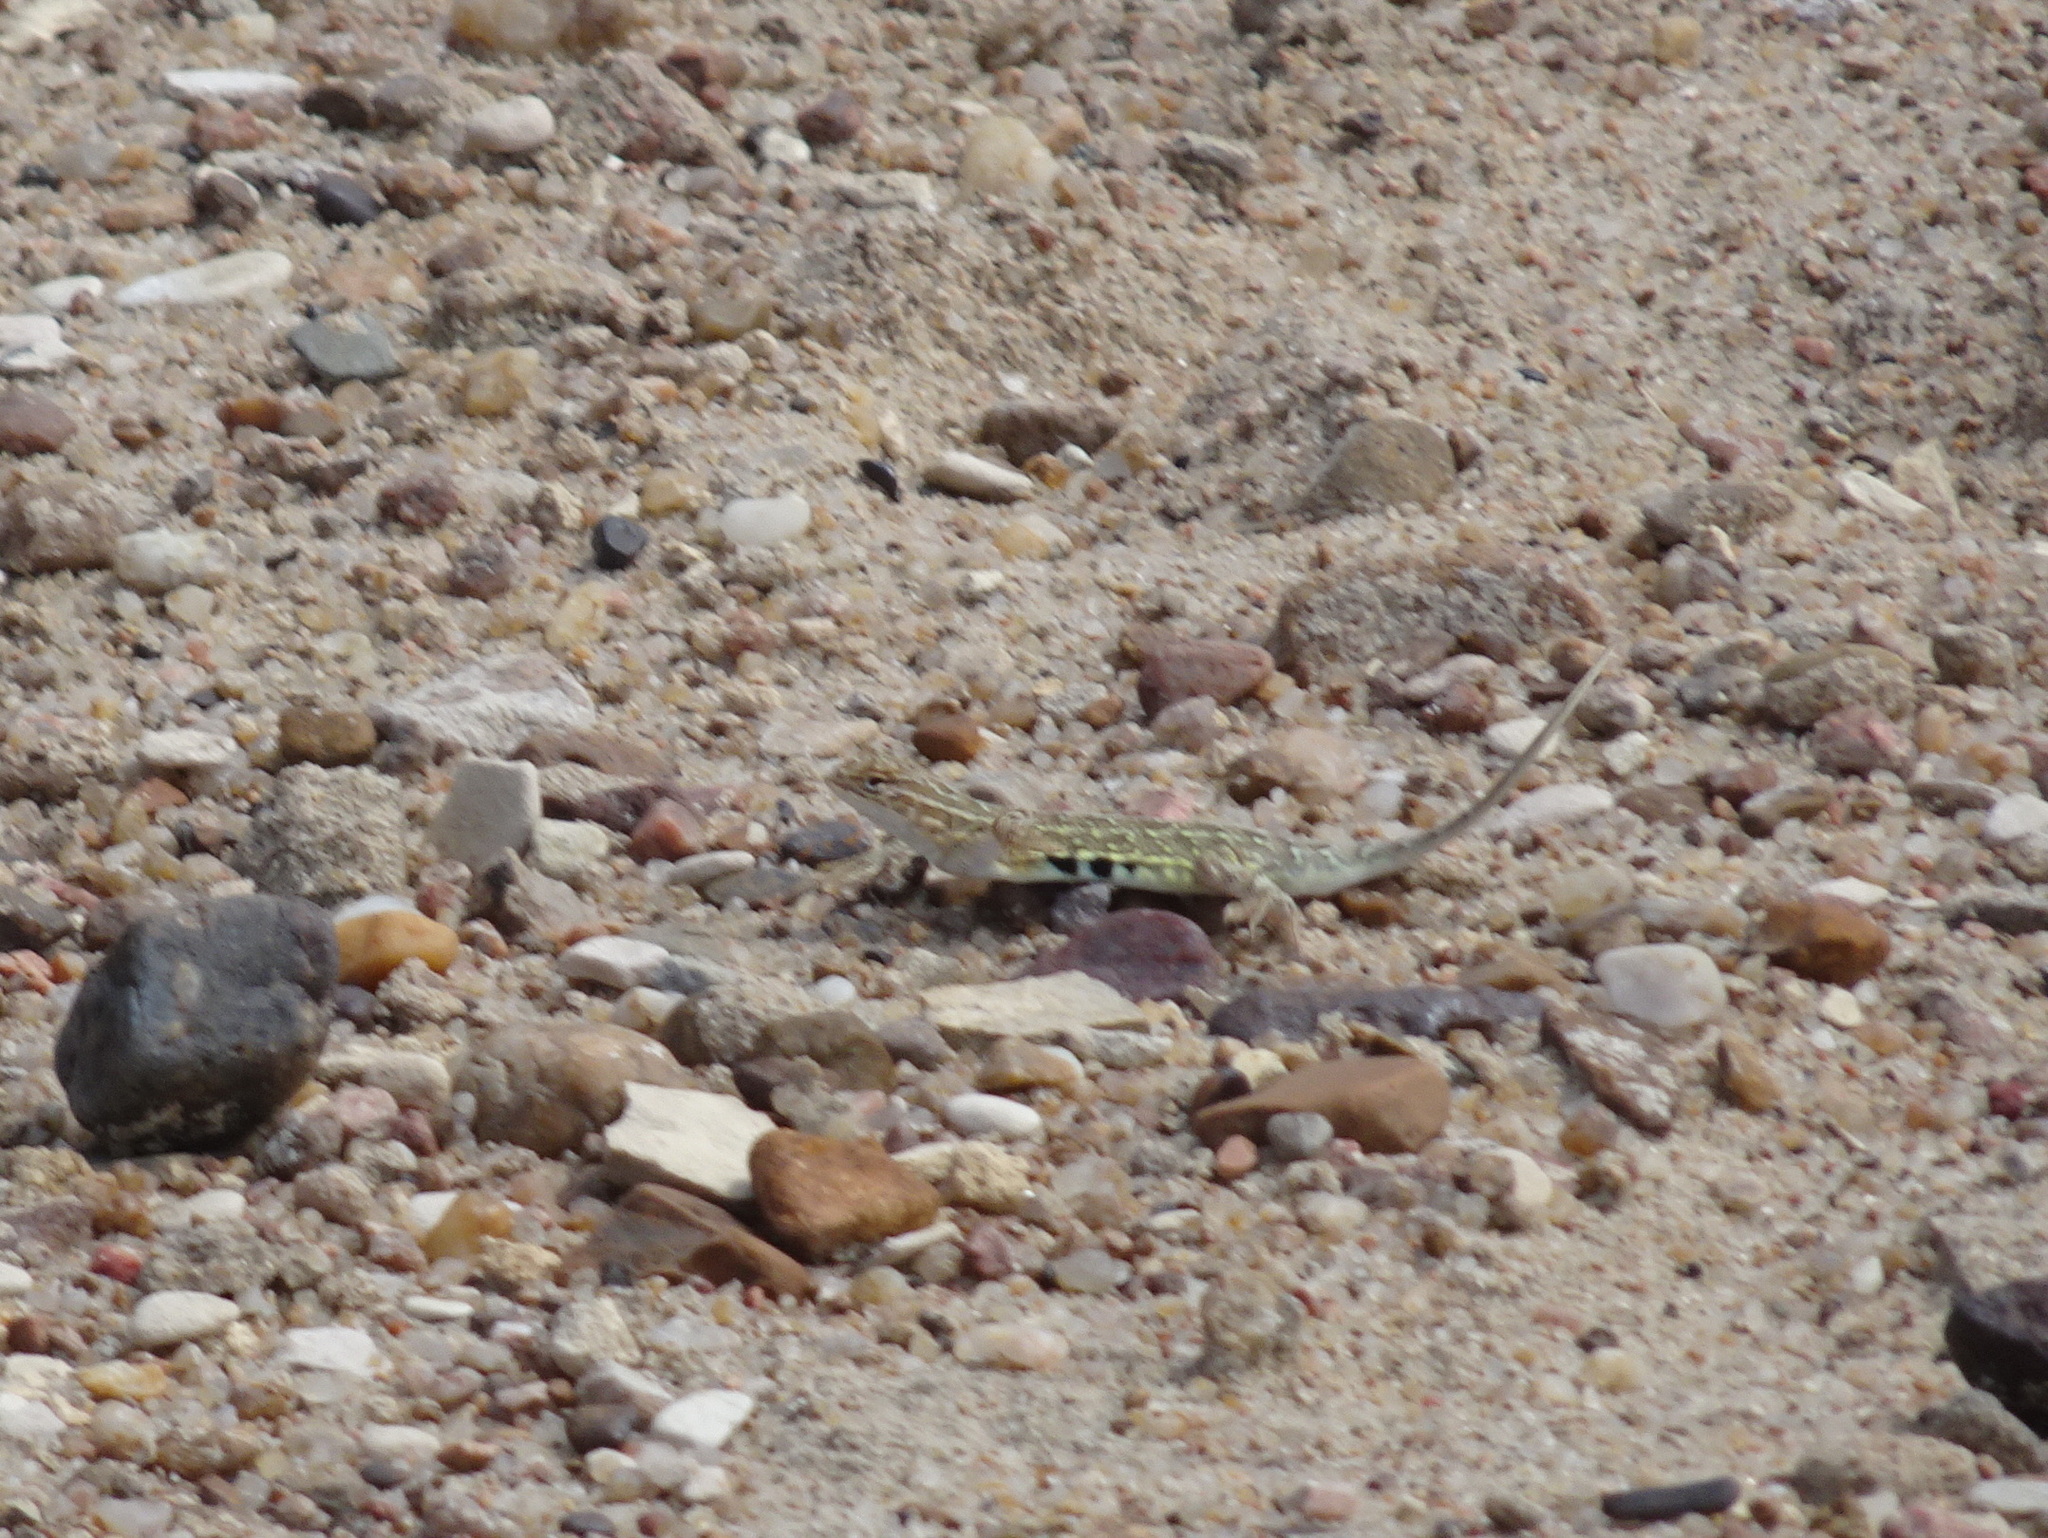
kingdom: Animalia
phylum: Chordata
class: Squamata
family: Phrynosomatidae
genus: Holbrookia
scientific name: Holbrookia maculata
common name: Lesser earless lizard
